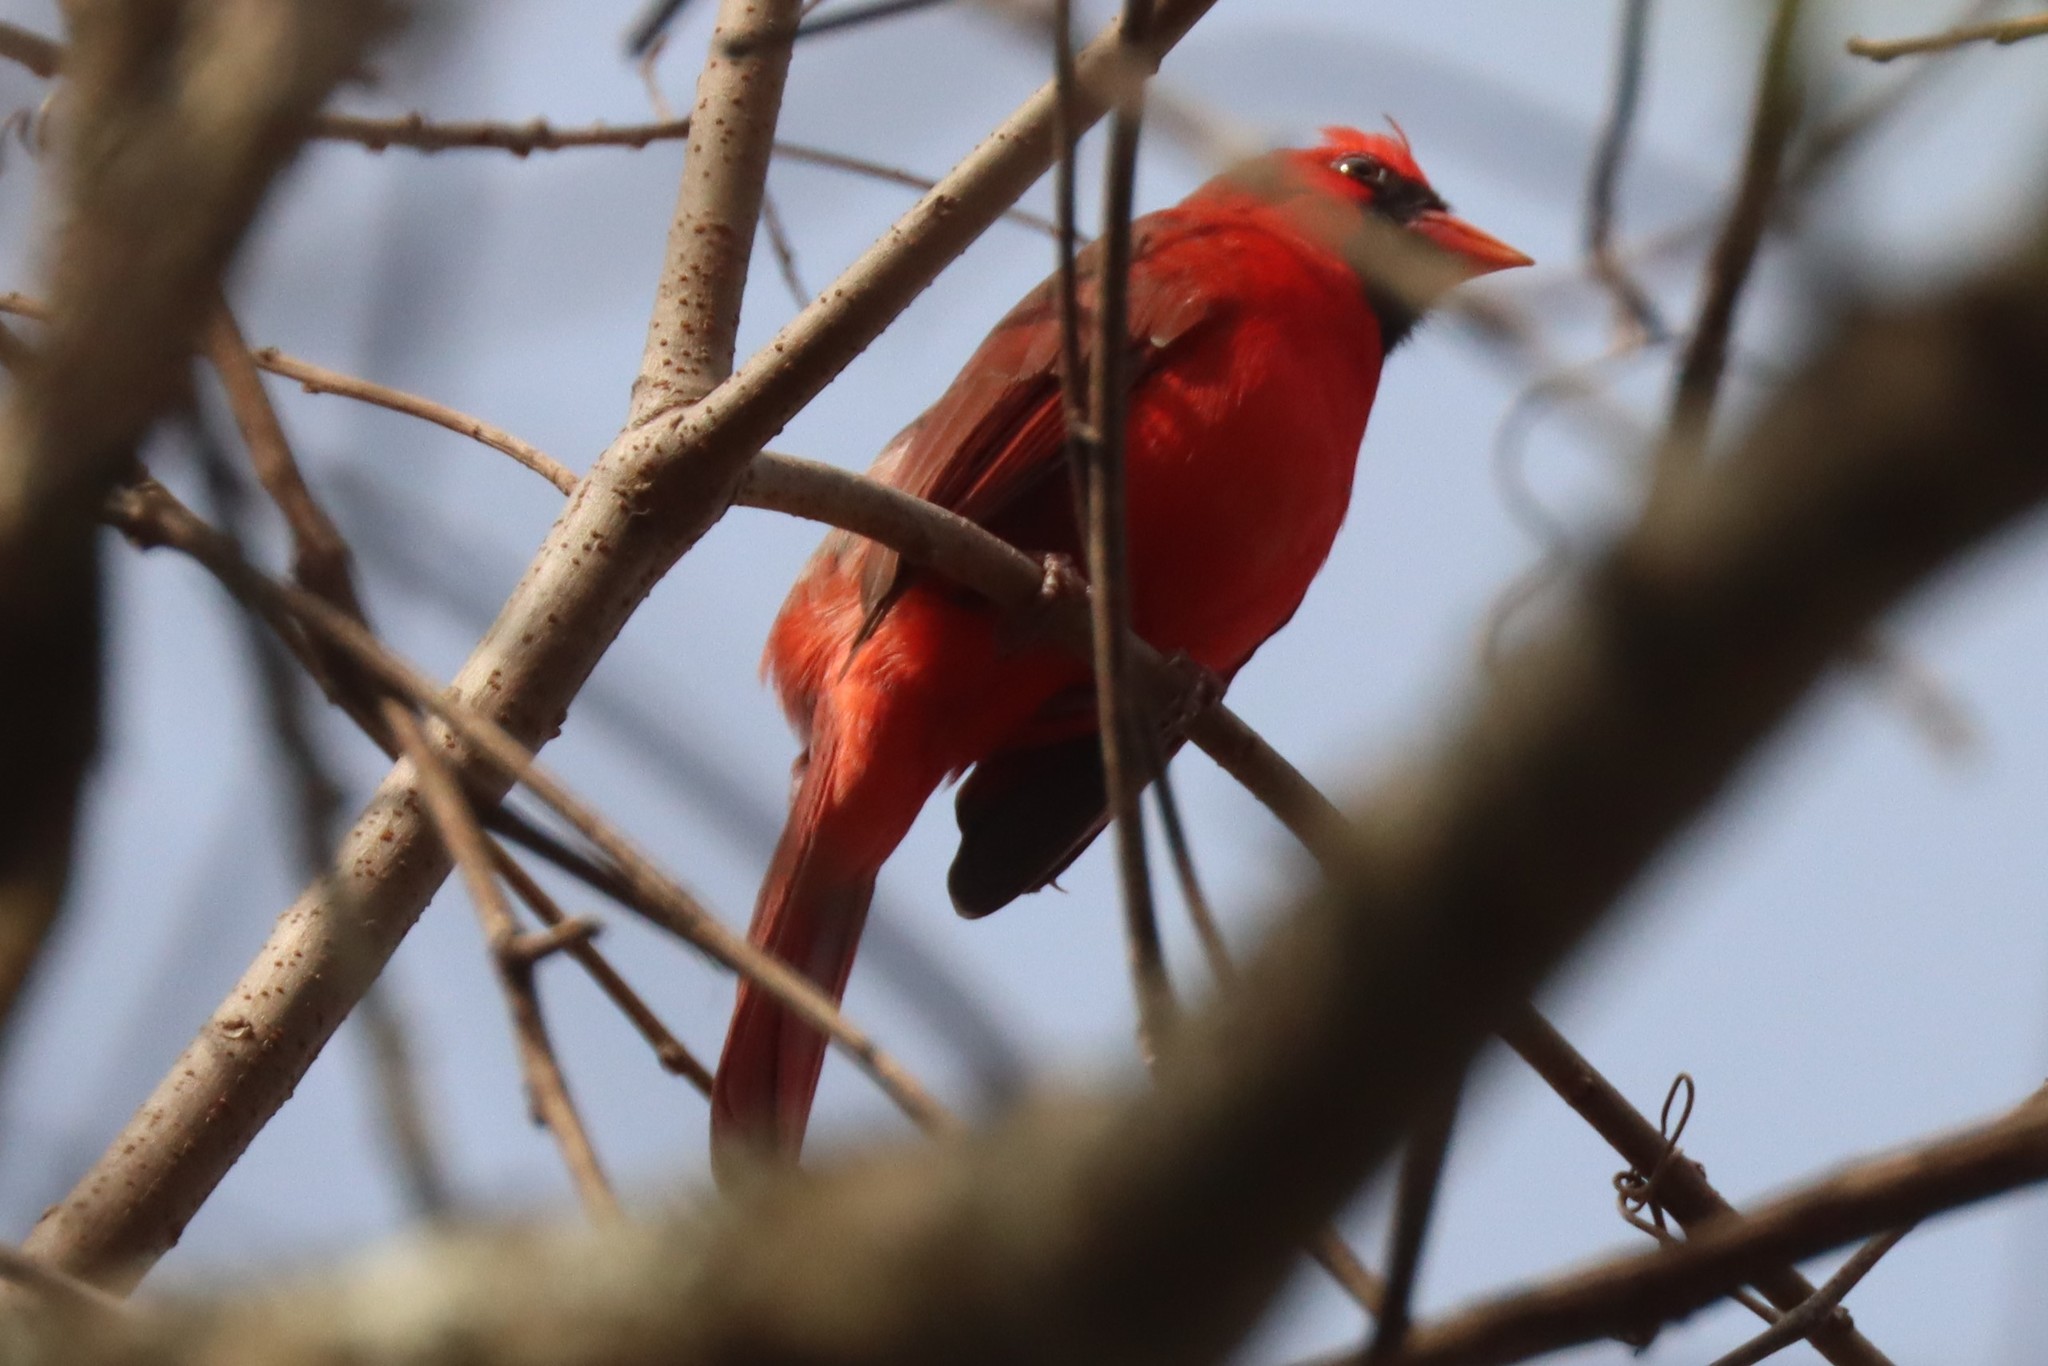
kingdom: Animalia
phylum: Chordata
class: Aves
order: Passeriformes
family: Cardinalidae
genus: Cardinalis
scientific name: Cardinalis cardinalis
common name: Northern cardinal
